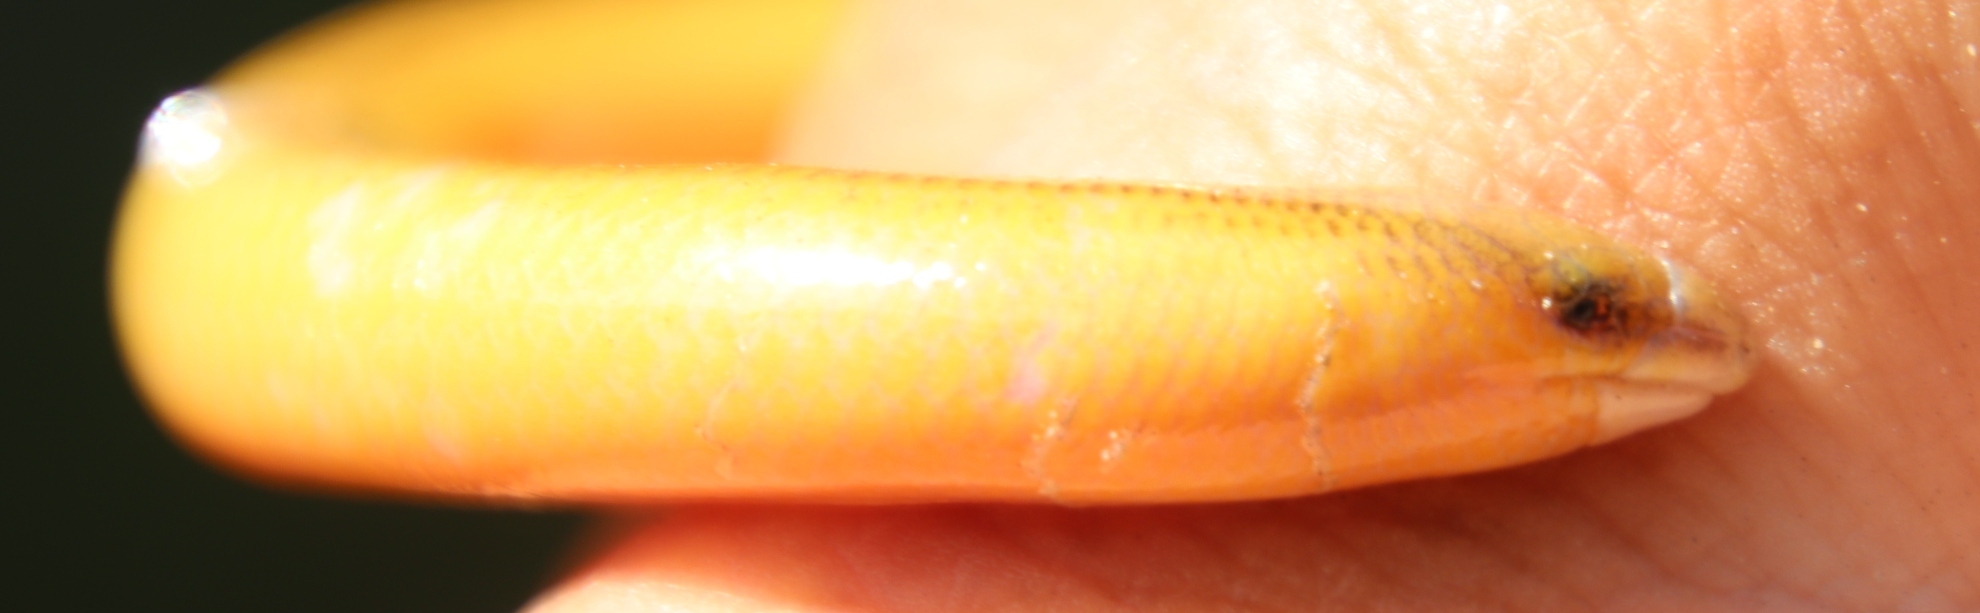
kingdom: Animalia
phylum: Chordata
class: Squamata
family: Scincidae
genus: Acontias
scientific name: Acontias meleagris
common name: Cape legless skink
